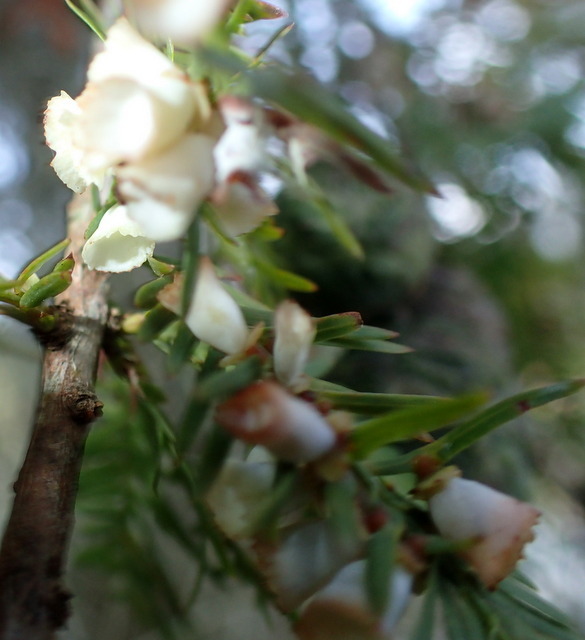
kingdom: Animalia
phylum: Arthropoda
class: Insecta
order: Diptera
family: Cecidomyiidae
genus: Taxodiomyia
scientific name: Taxodiomyia cupressi
